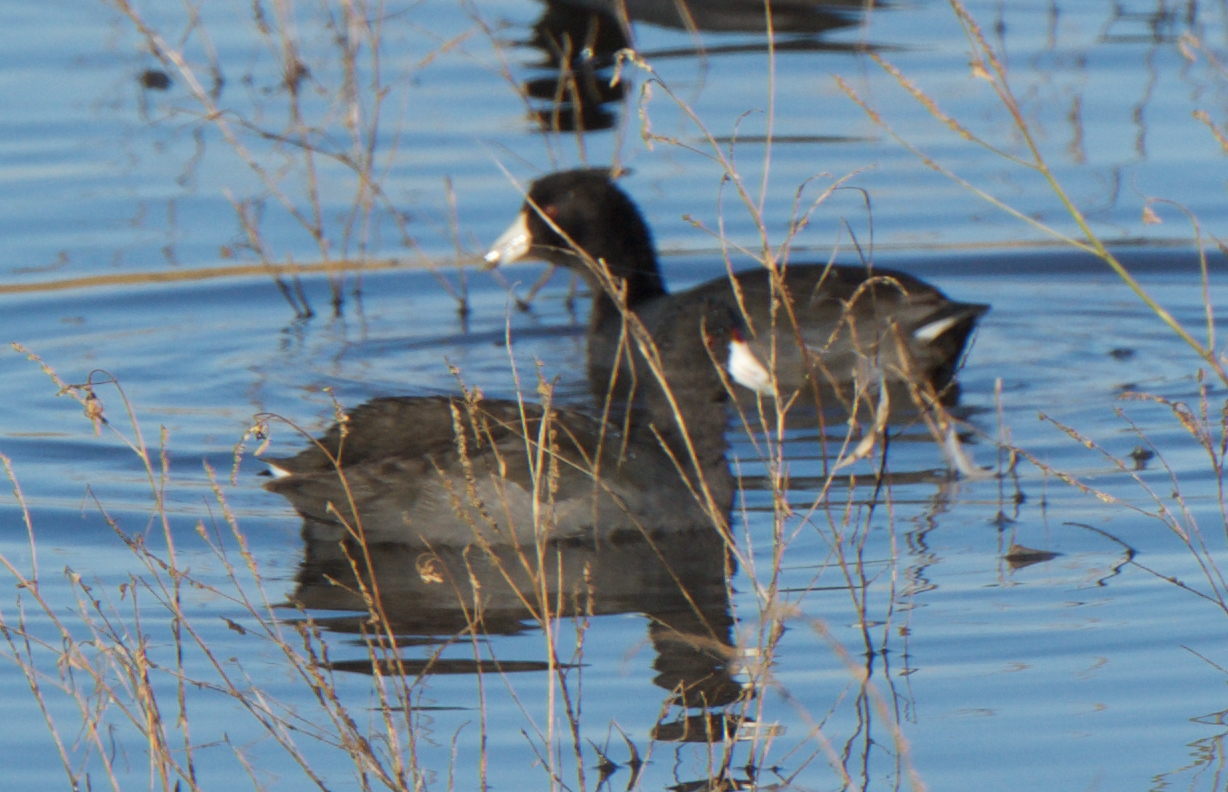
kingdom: Animalia
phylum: Chordata
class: Aves
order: Gruiformes
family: Rallidae
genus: Fulica
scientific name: Fulica americana
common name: American coot
